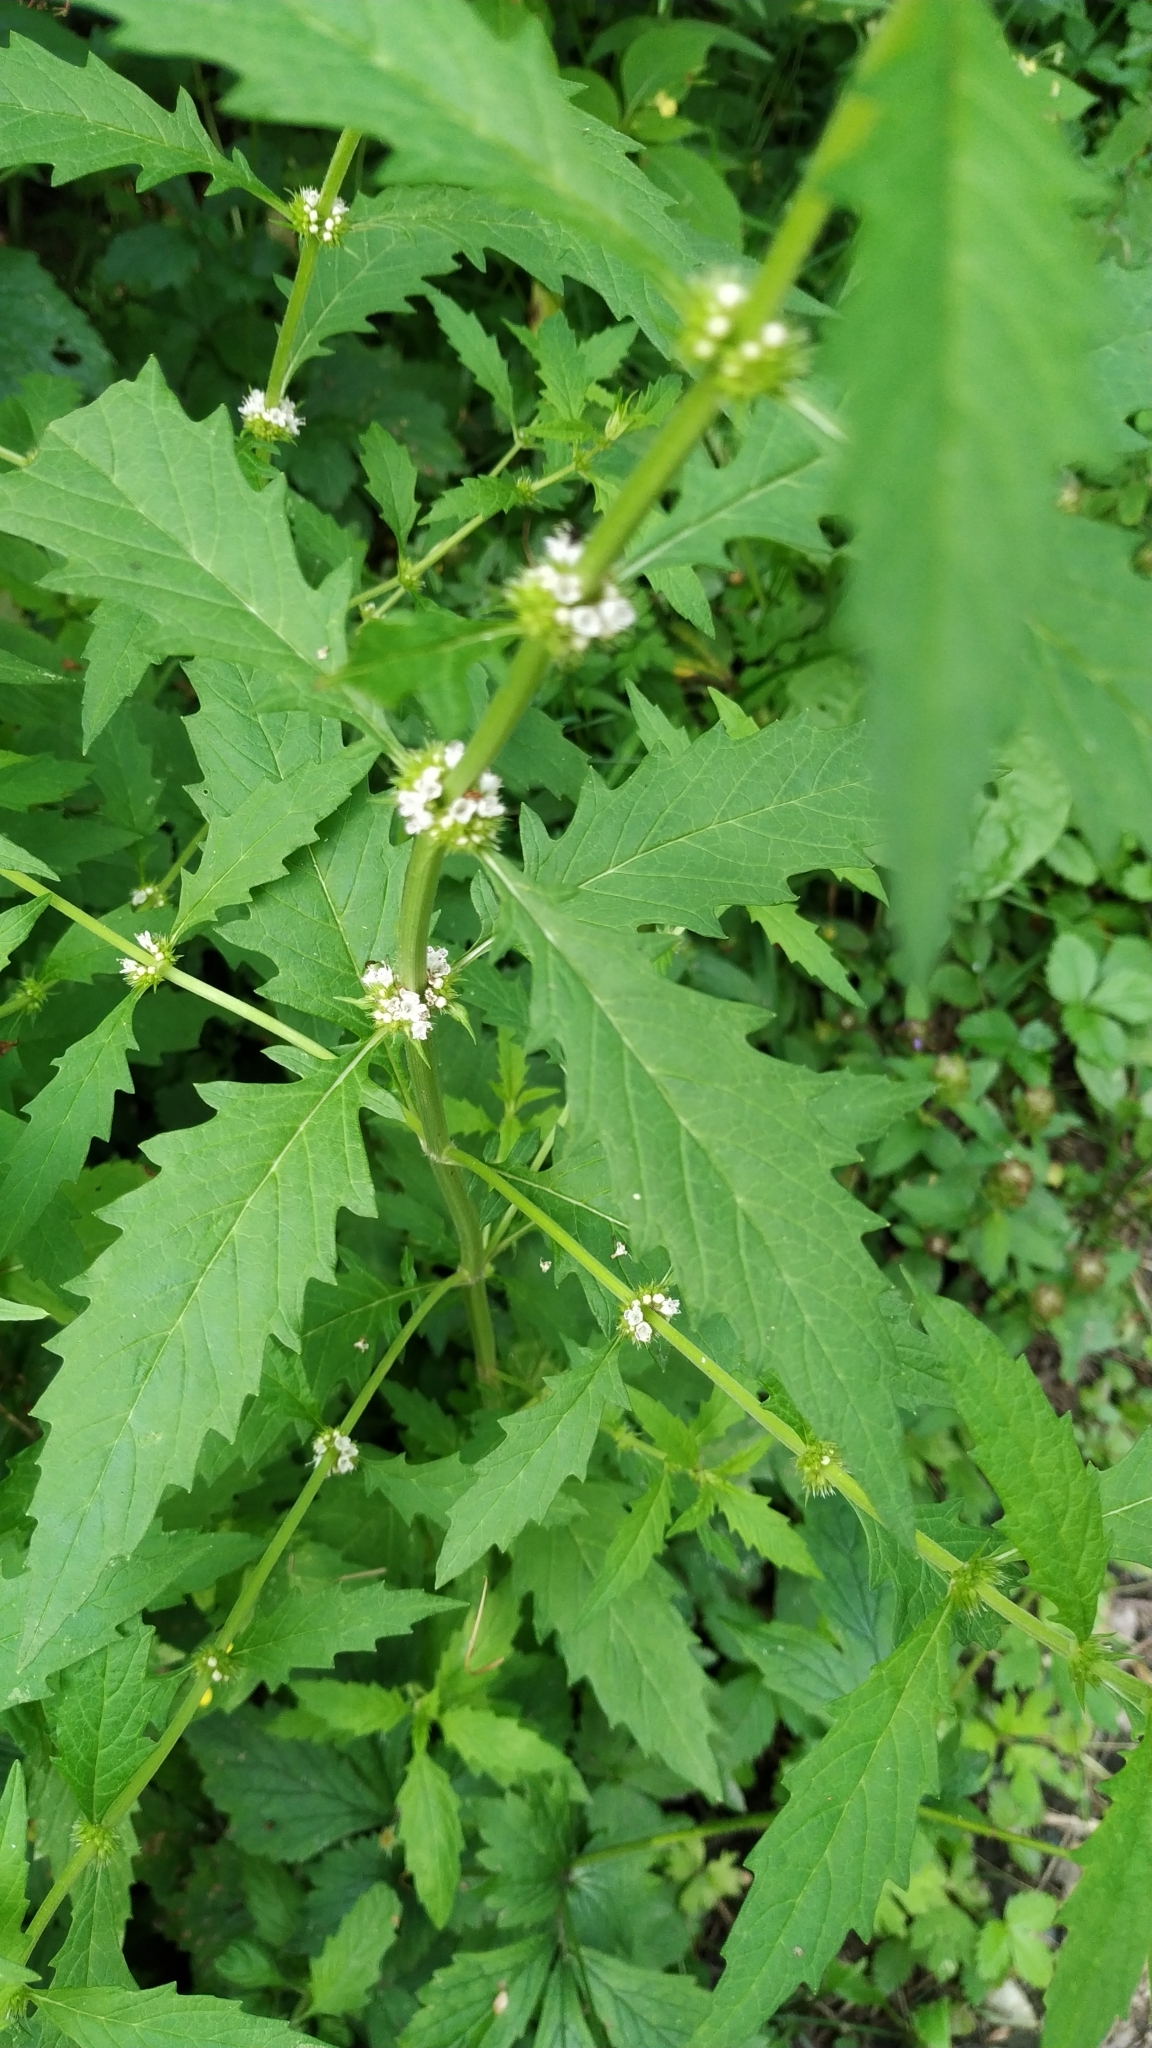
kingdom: Plantae
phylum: Tracheophyta
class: Magnoliopsida
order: Lamiales
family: Lamiaceae
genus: Lycopus
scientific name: Lycopus europaeus
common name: European bugleweed
